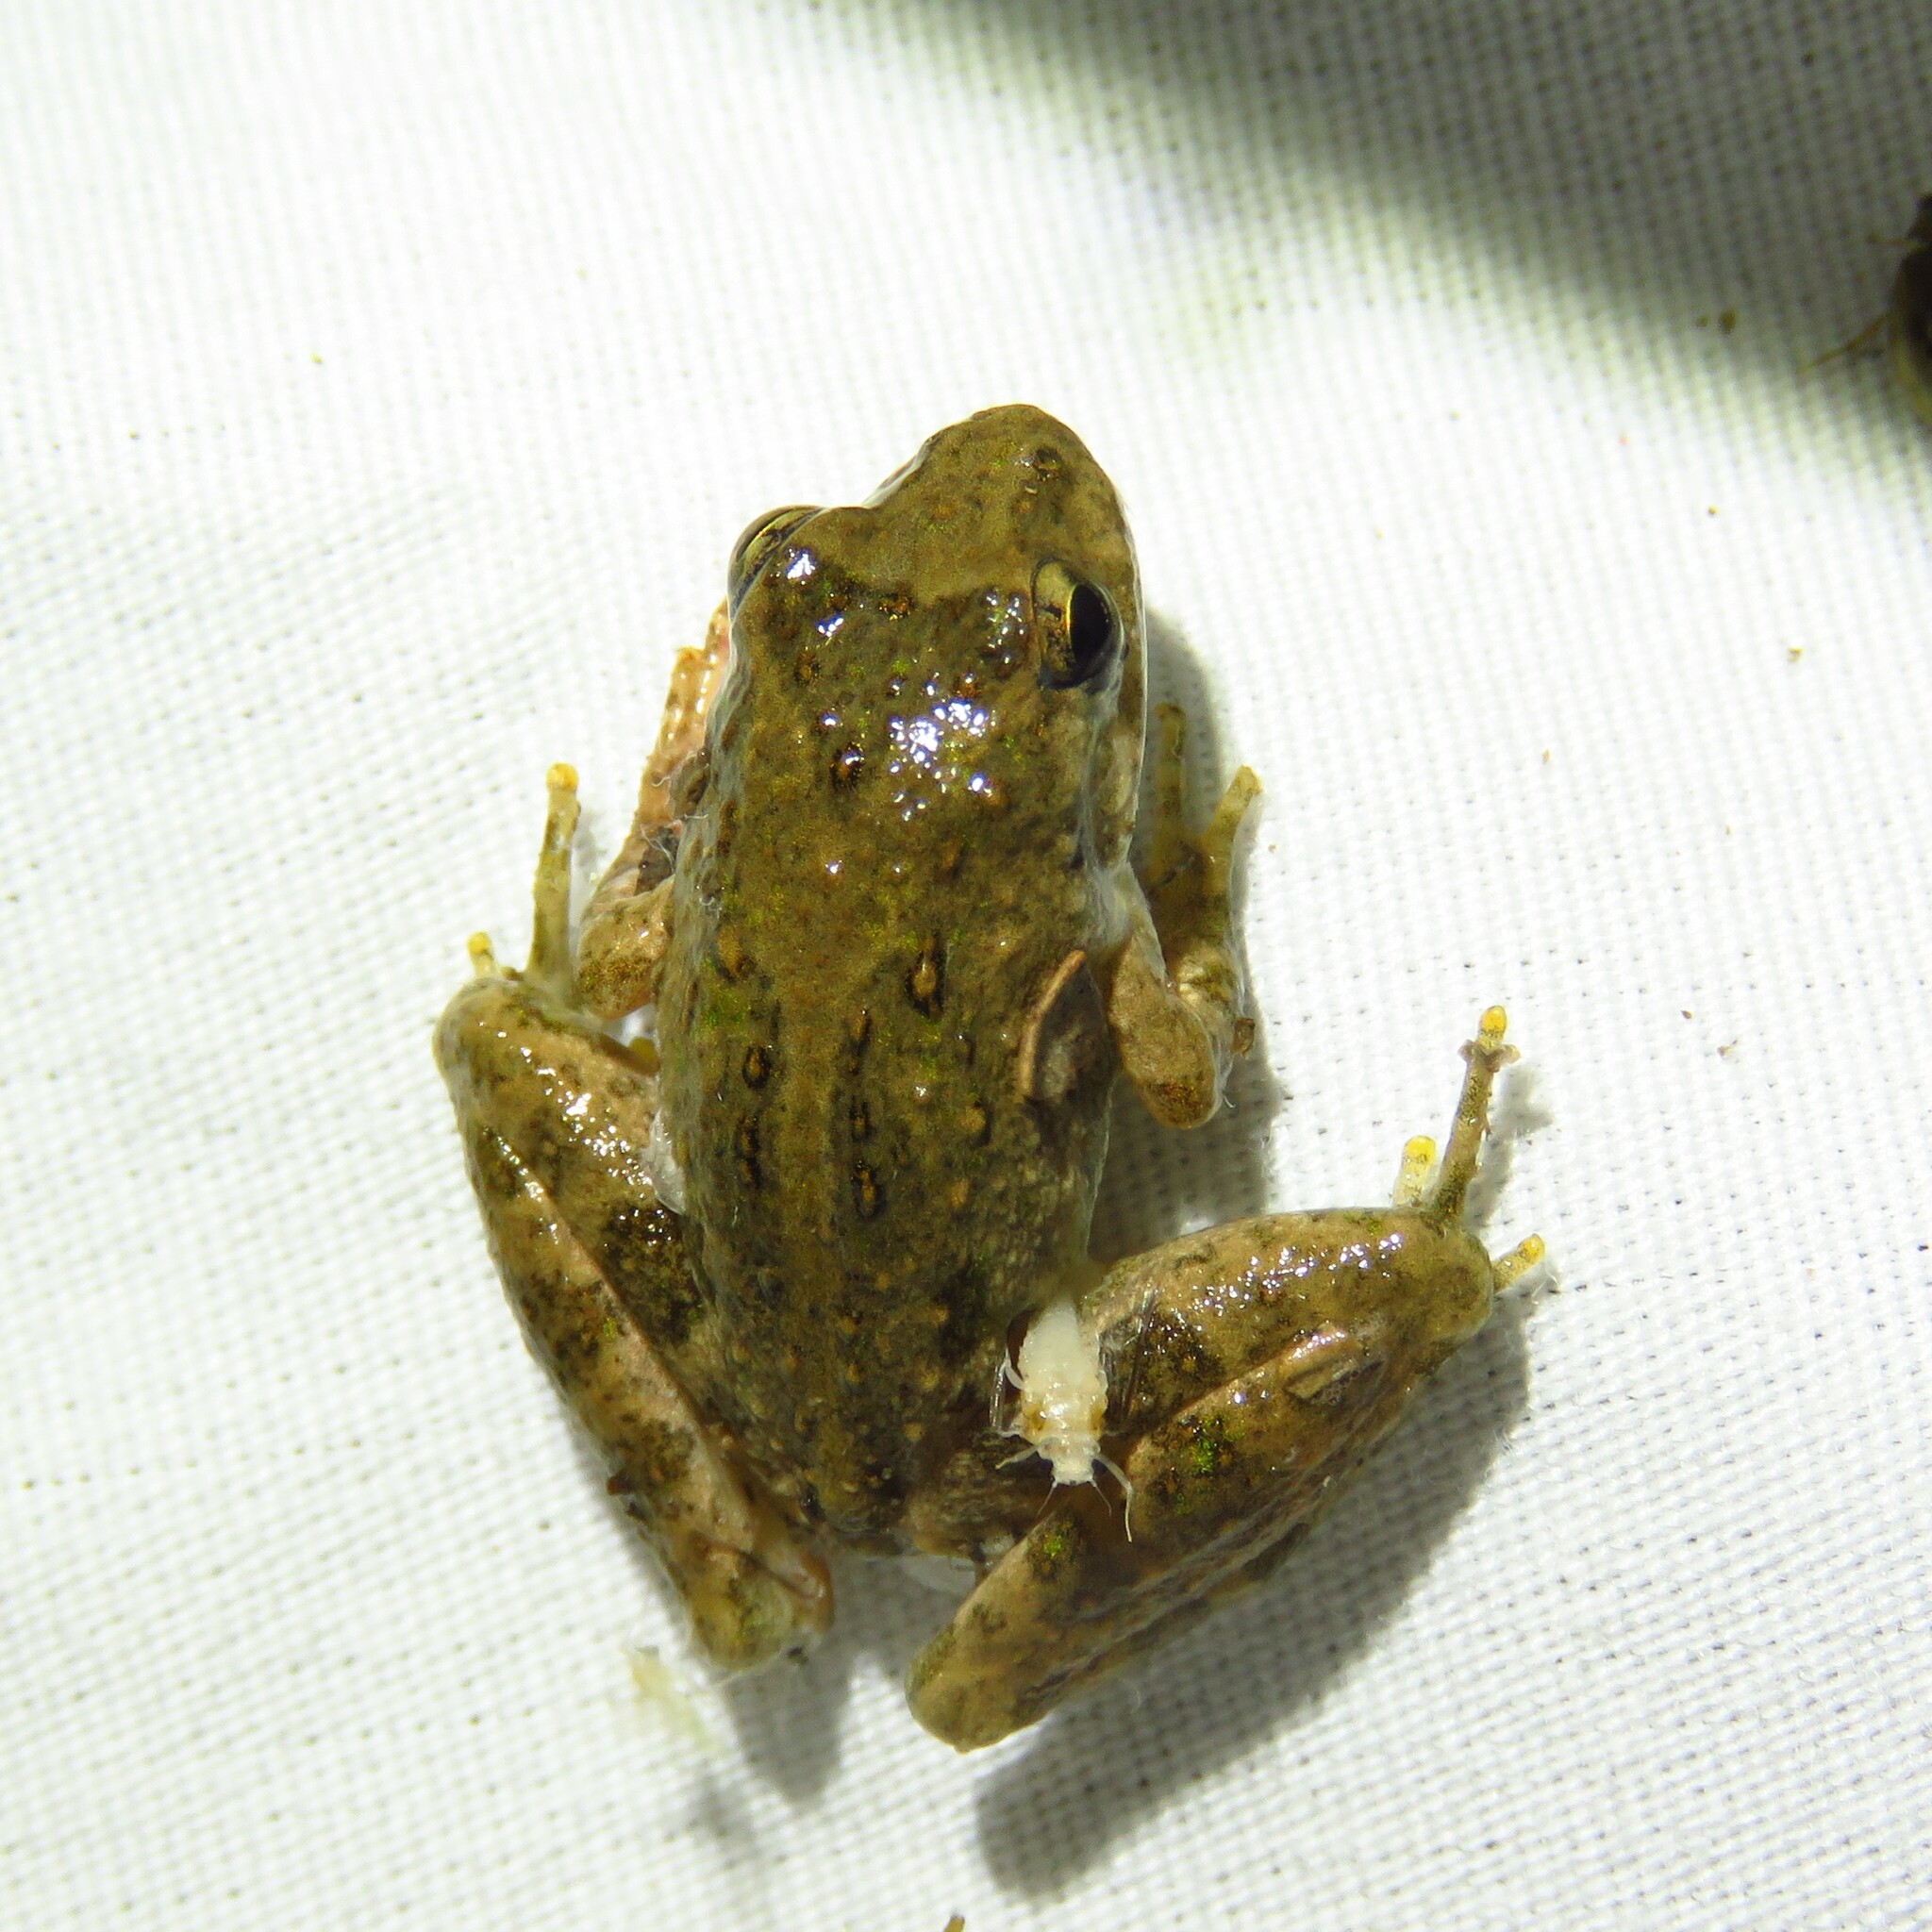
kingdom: Animalia
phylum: Chordata
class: Amphibia
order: Anura
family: Hylidae
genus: Acris
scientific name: Acris blanchardi
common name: Blanchard's cricket frog
